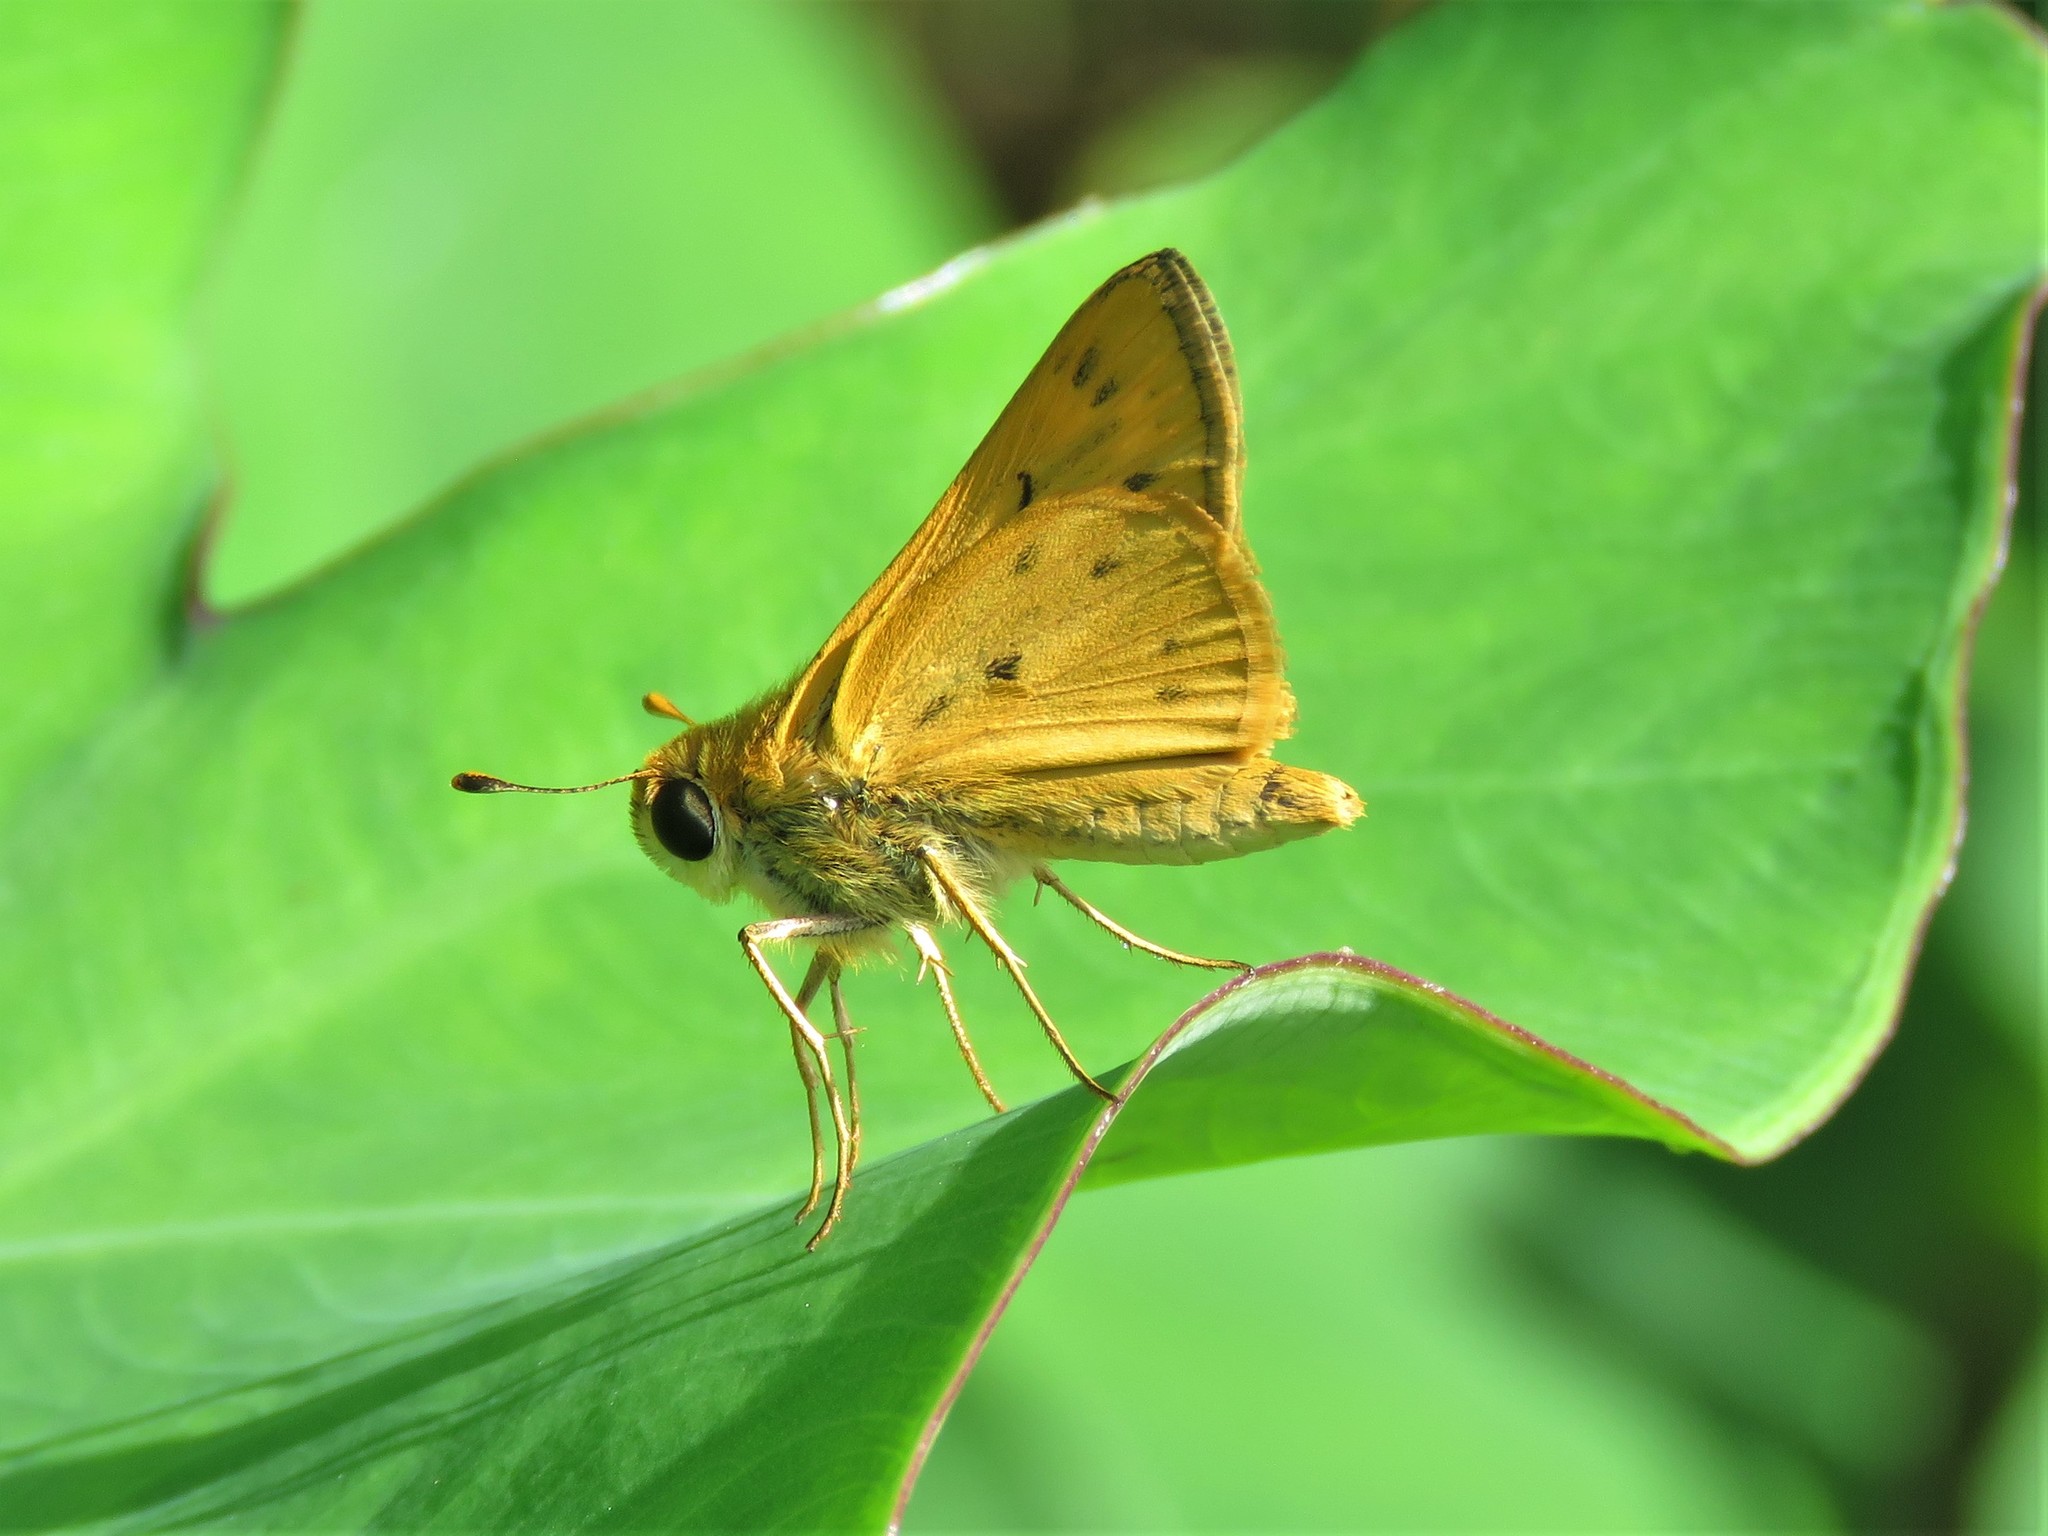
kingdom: Animalia
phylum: Arthropoda
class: Insecta
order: Lepidoptera
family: Hesperiidae
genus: Hylephila
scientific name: Hylephila phyleus
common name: Fiery skipper
